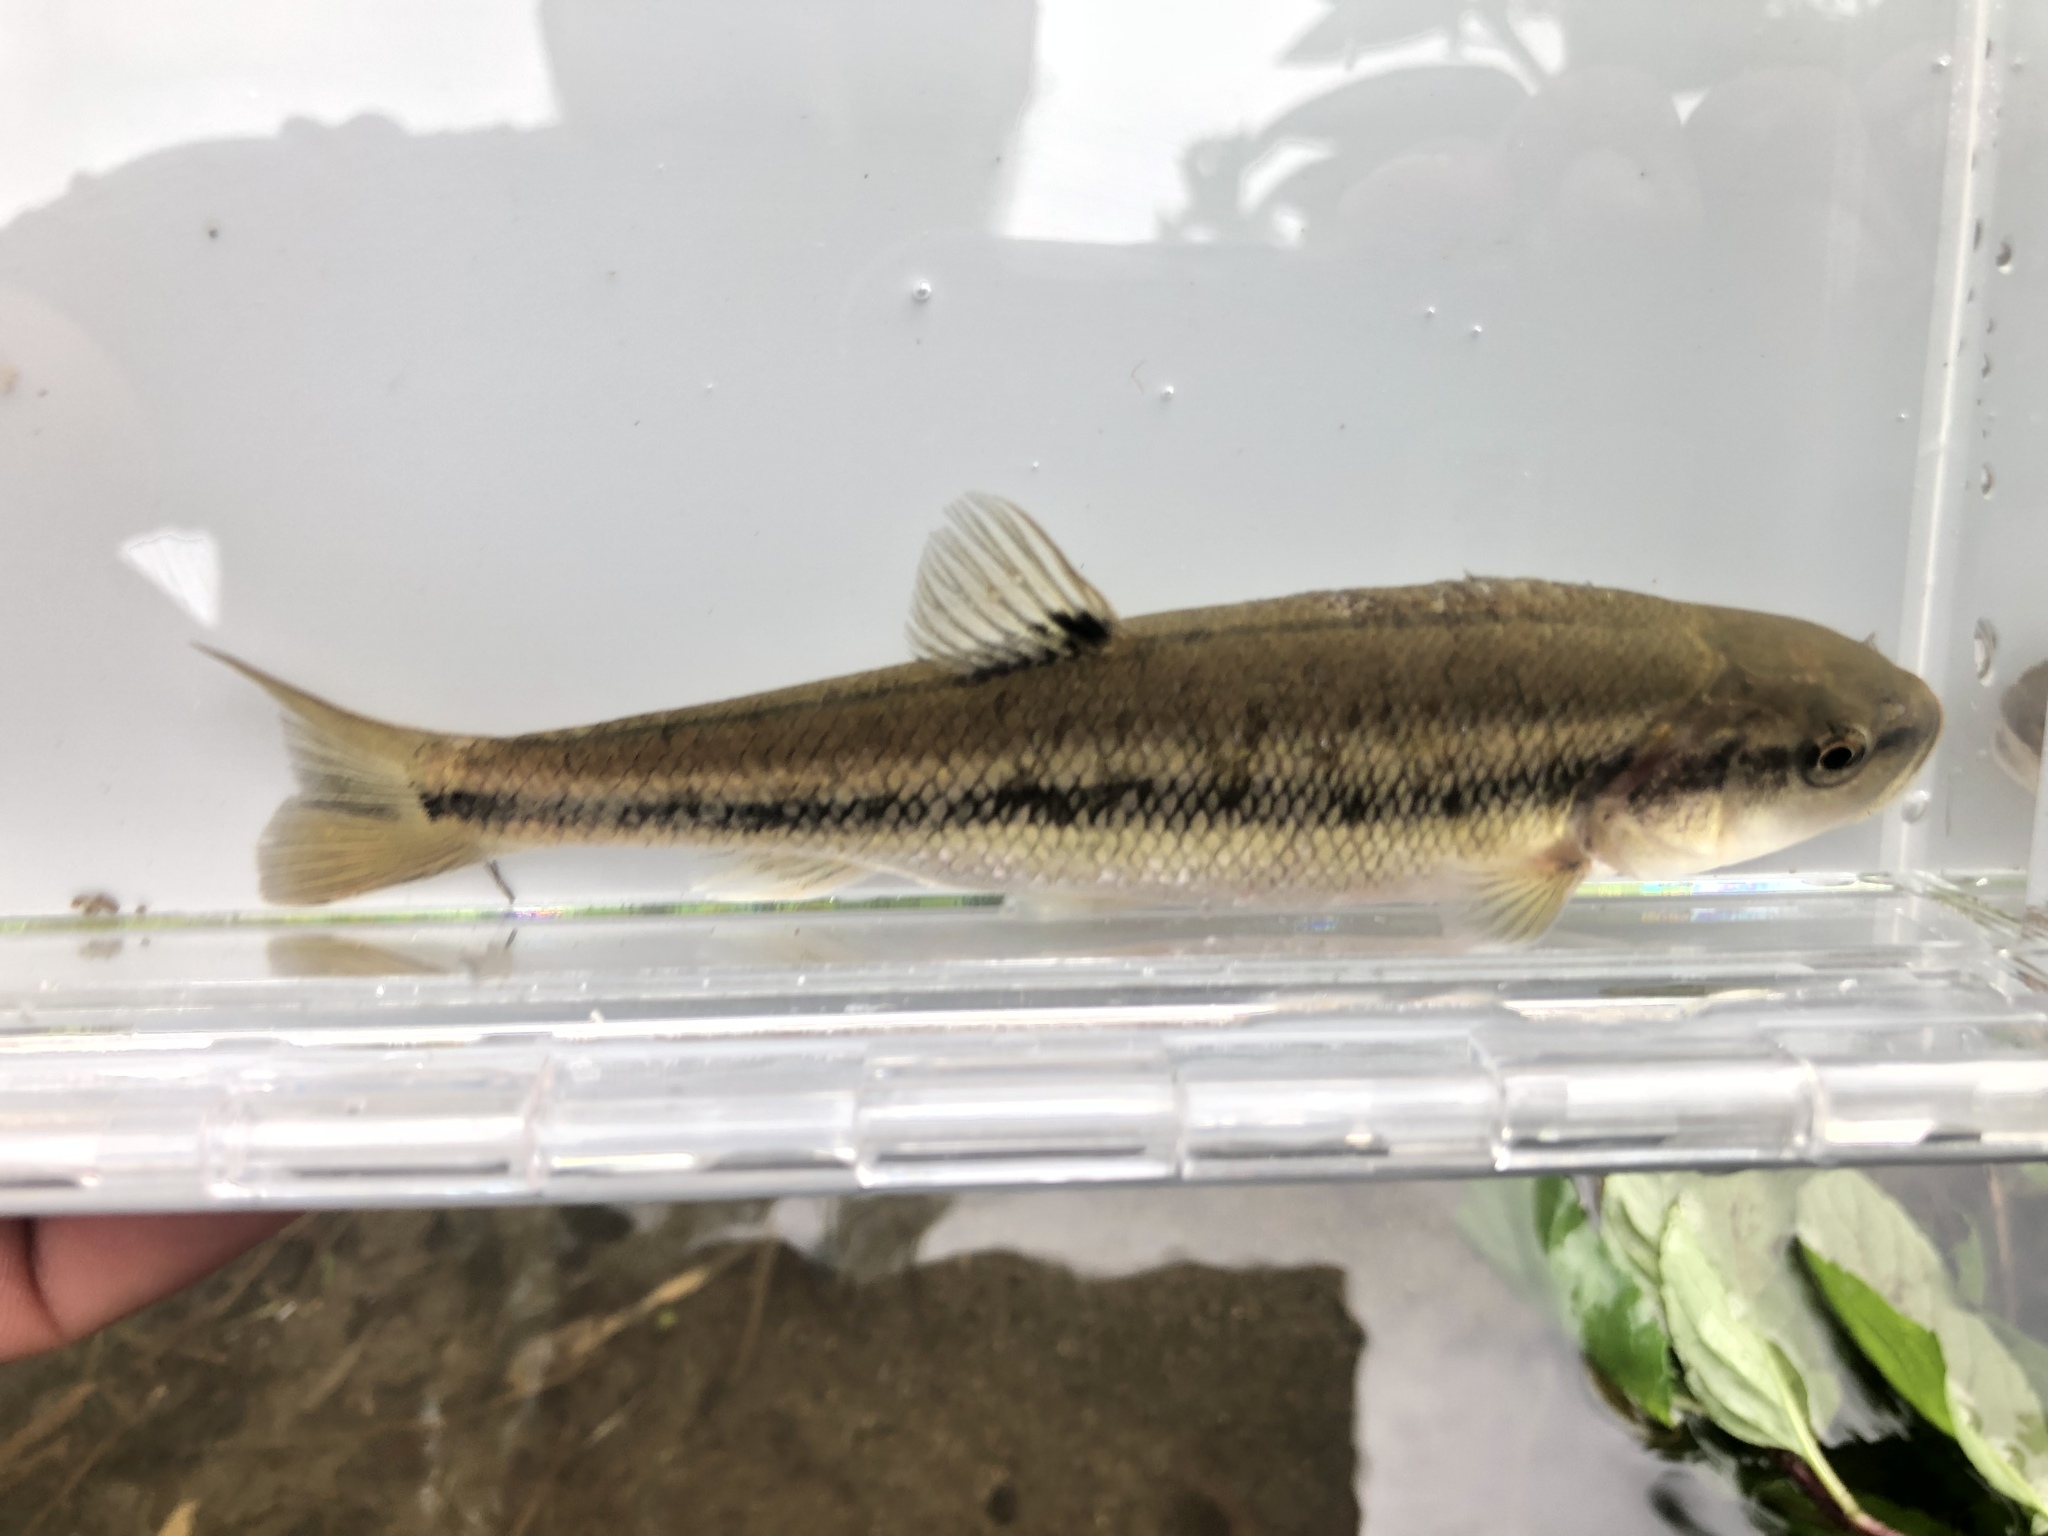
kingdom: Animalia
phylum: Chordata
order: Cypriniformes
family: Cyprinidae
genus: Semotilus
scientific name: Semotilus atromaculatus
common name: Creek chub
